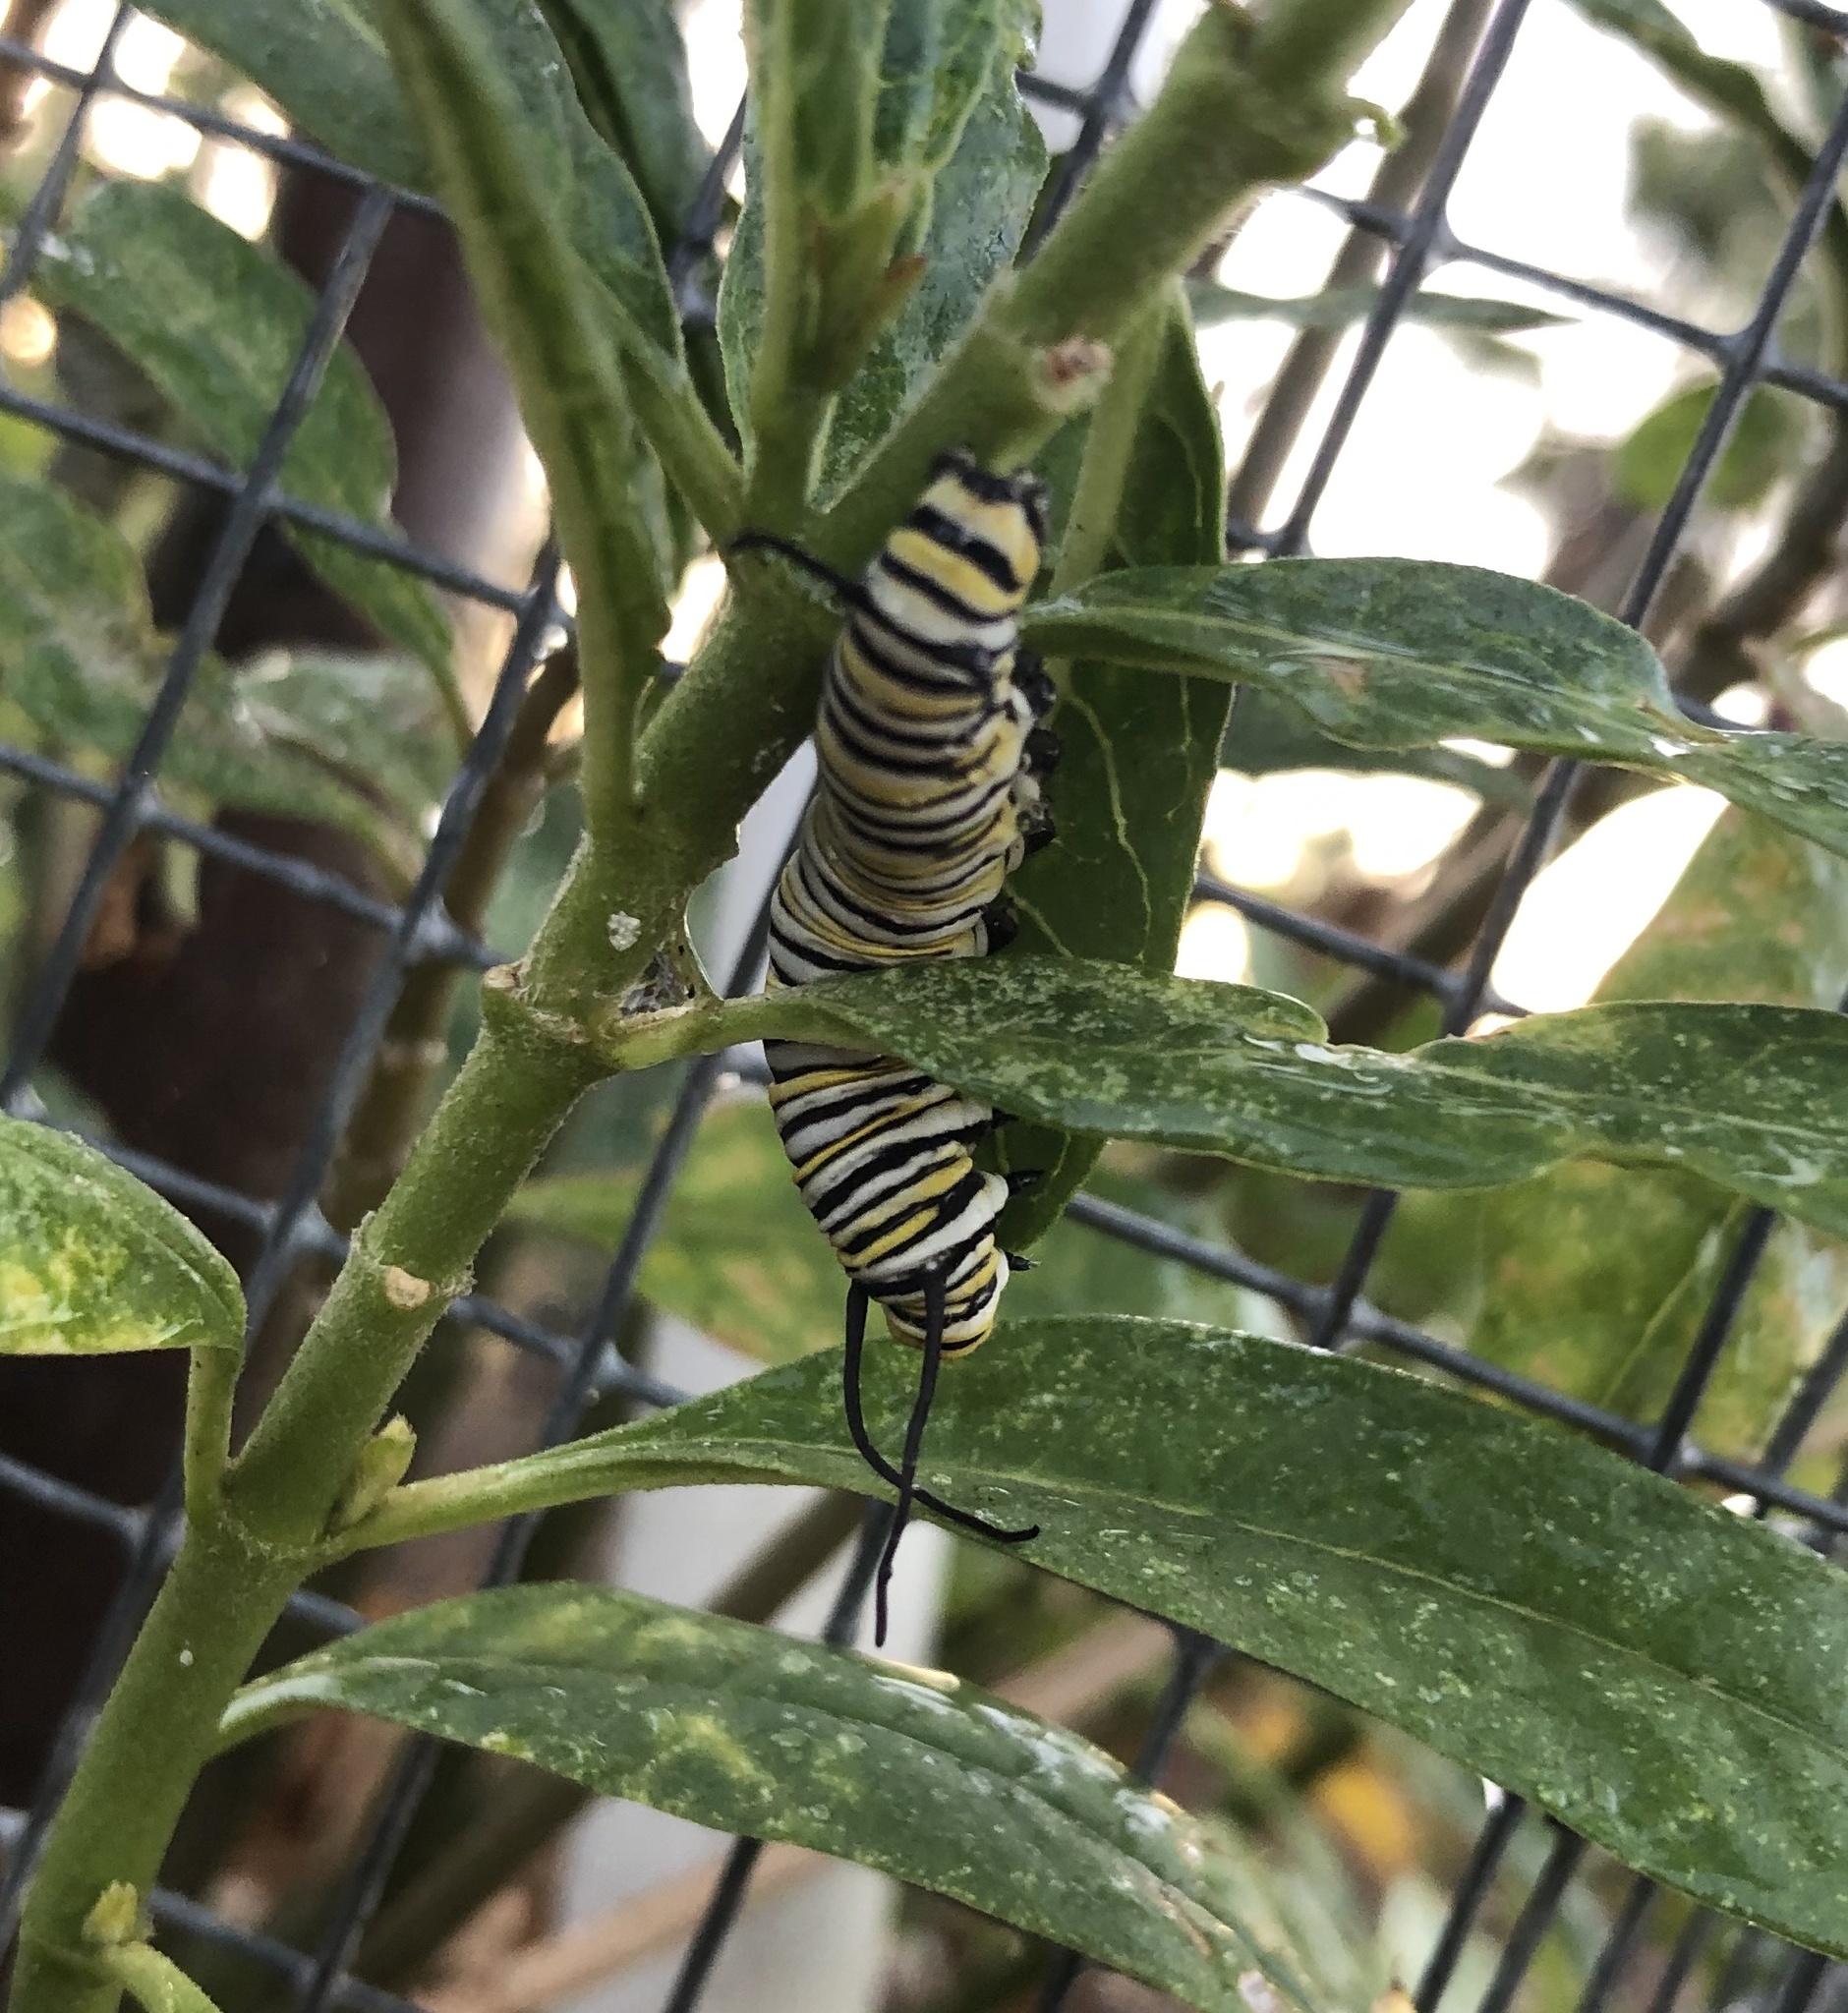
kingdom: Animalia
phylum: Arthropoda
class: Insecta
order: Lepidoptera
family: Nymphalidae
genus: Danaus
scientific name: Danaus plexippus
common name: Monarch
